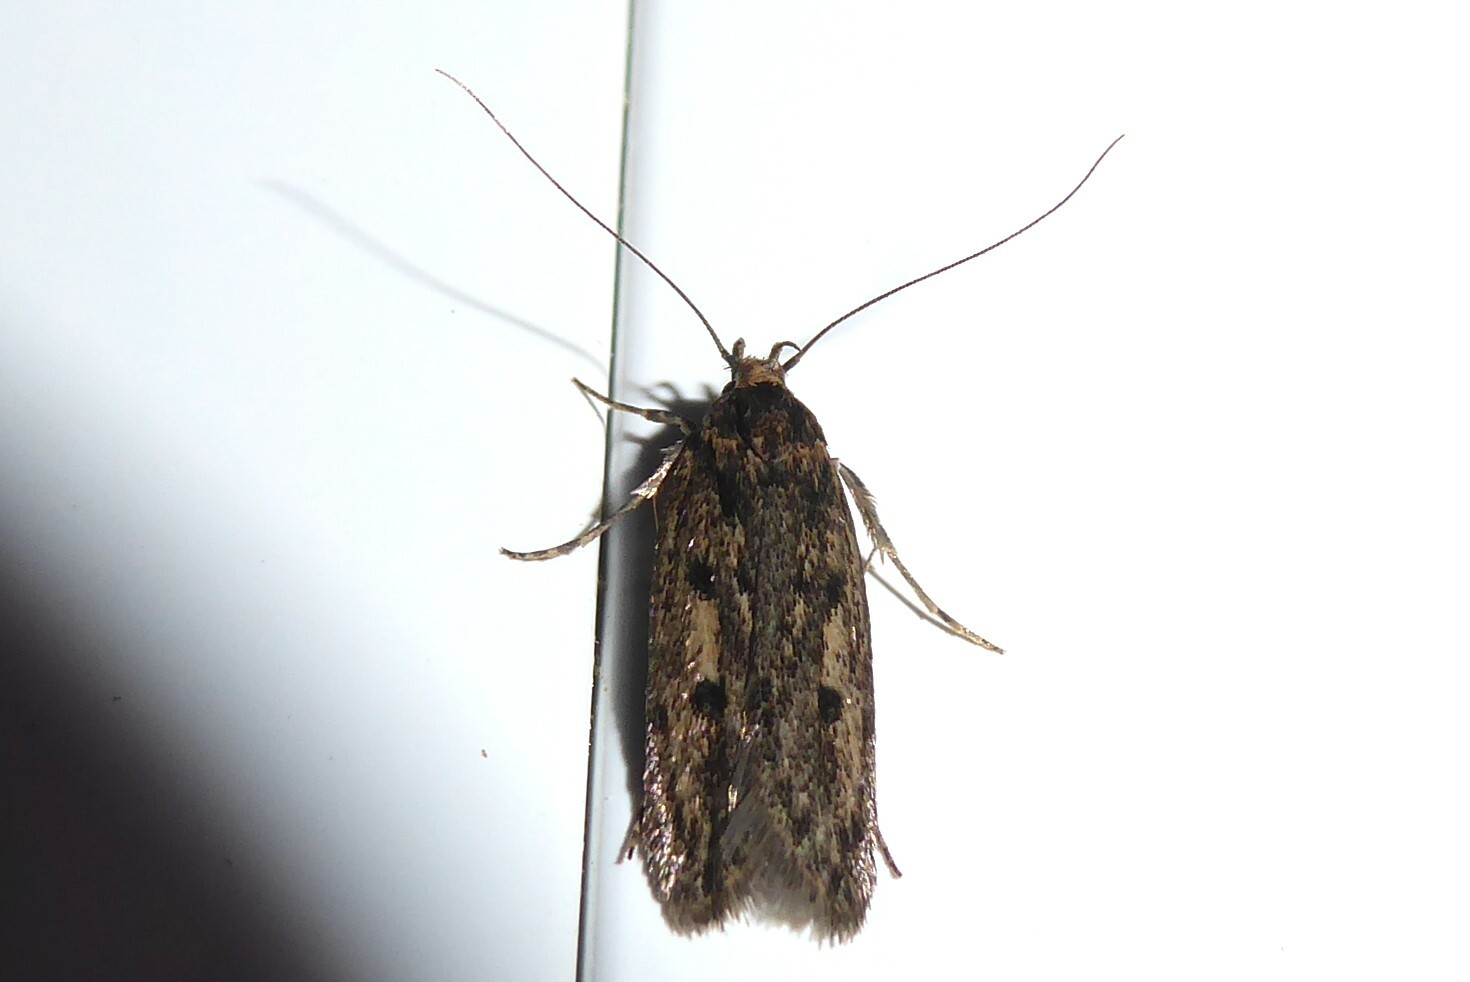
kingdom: Animalia
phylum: Arthropoda
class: Insecta
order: Lepidoptera
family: Oecophoridae
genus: Hofmannophila
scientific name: Hofmannophila pseudospretella
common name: Brown house moth
